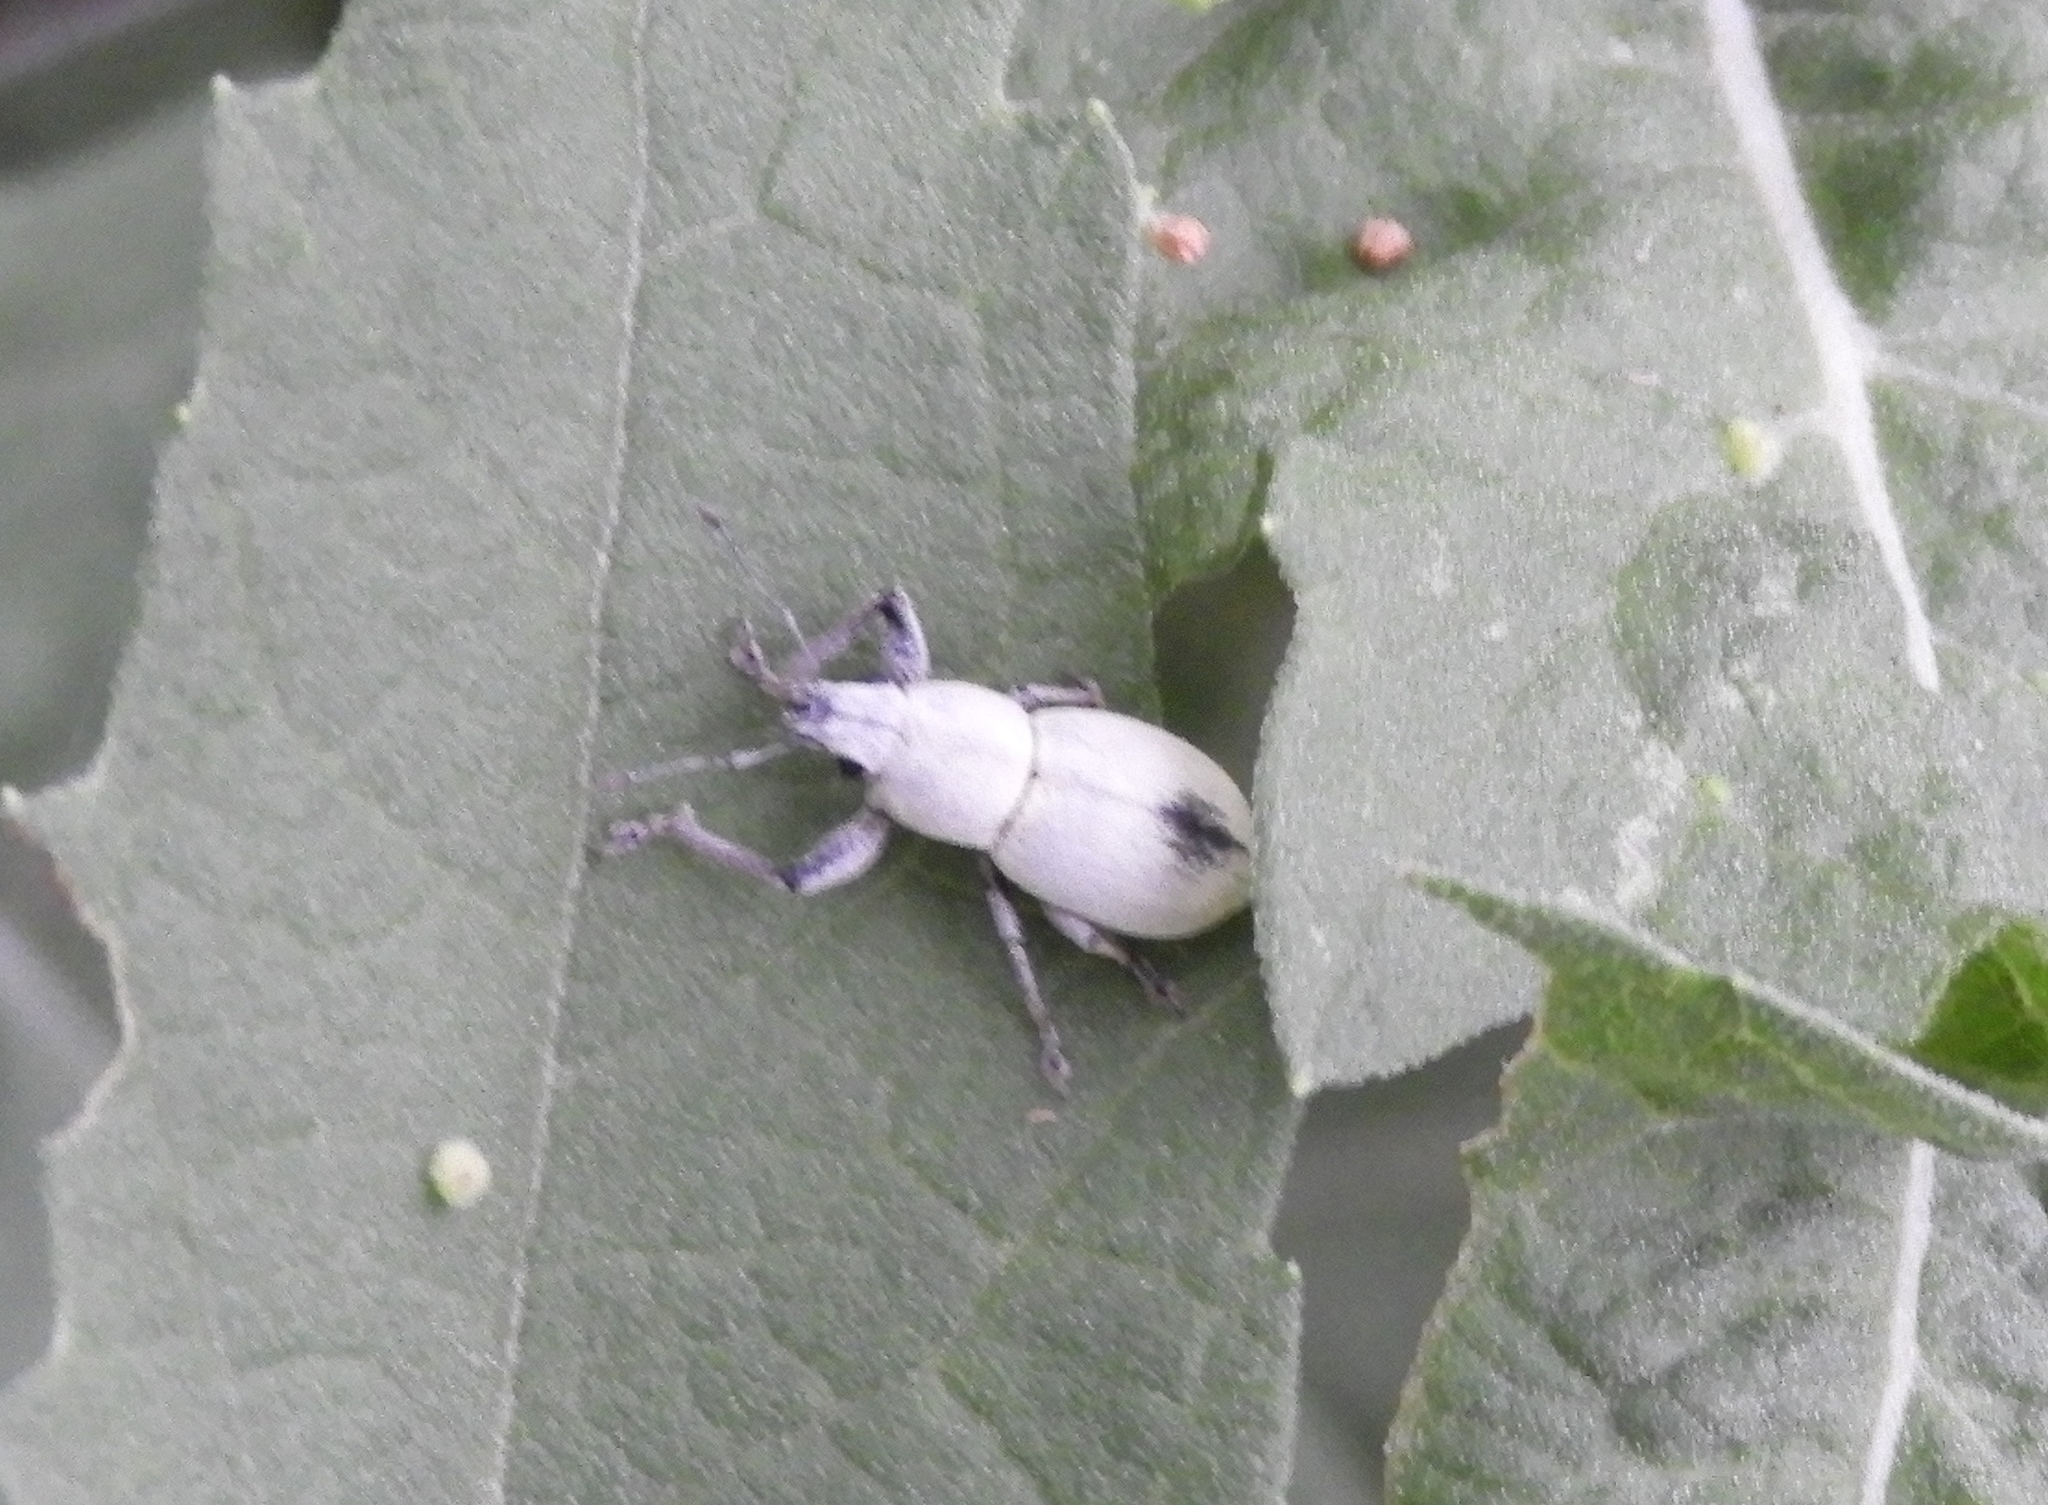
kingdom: Animalia
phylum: Arthropoda
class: Insecta
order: Coleoptera
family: Curculionidae
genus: Pantomorus
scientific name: Pantomorus
